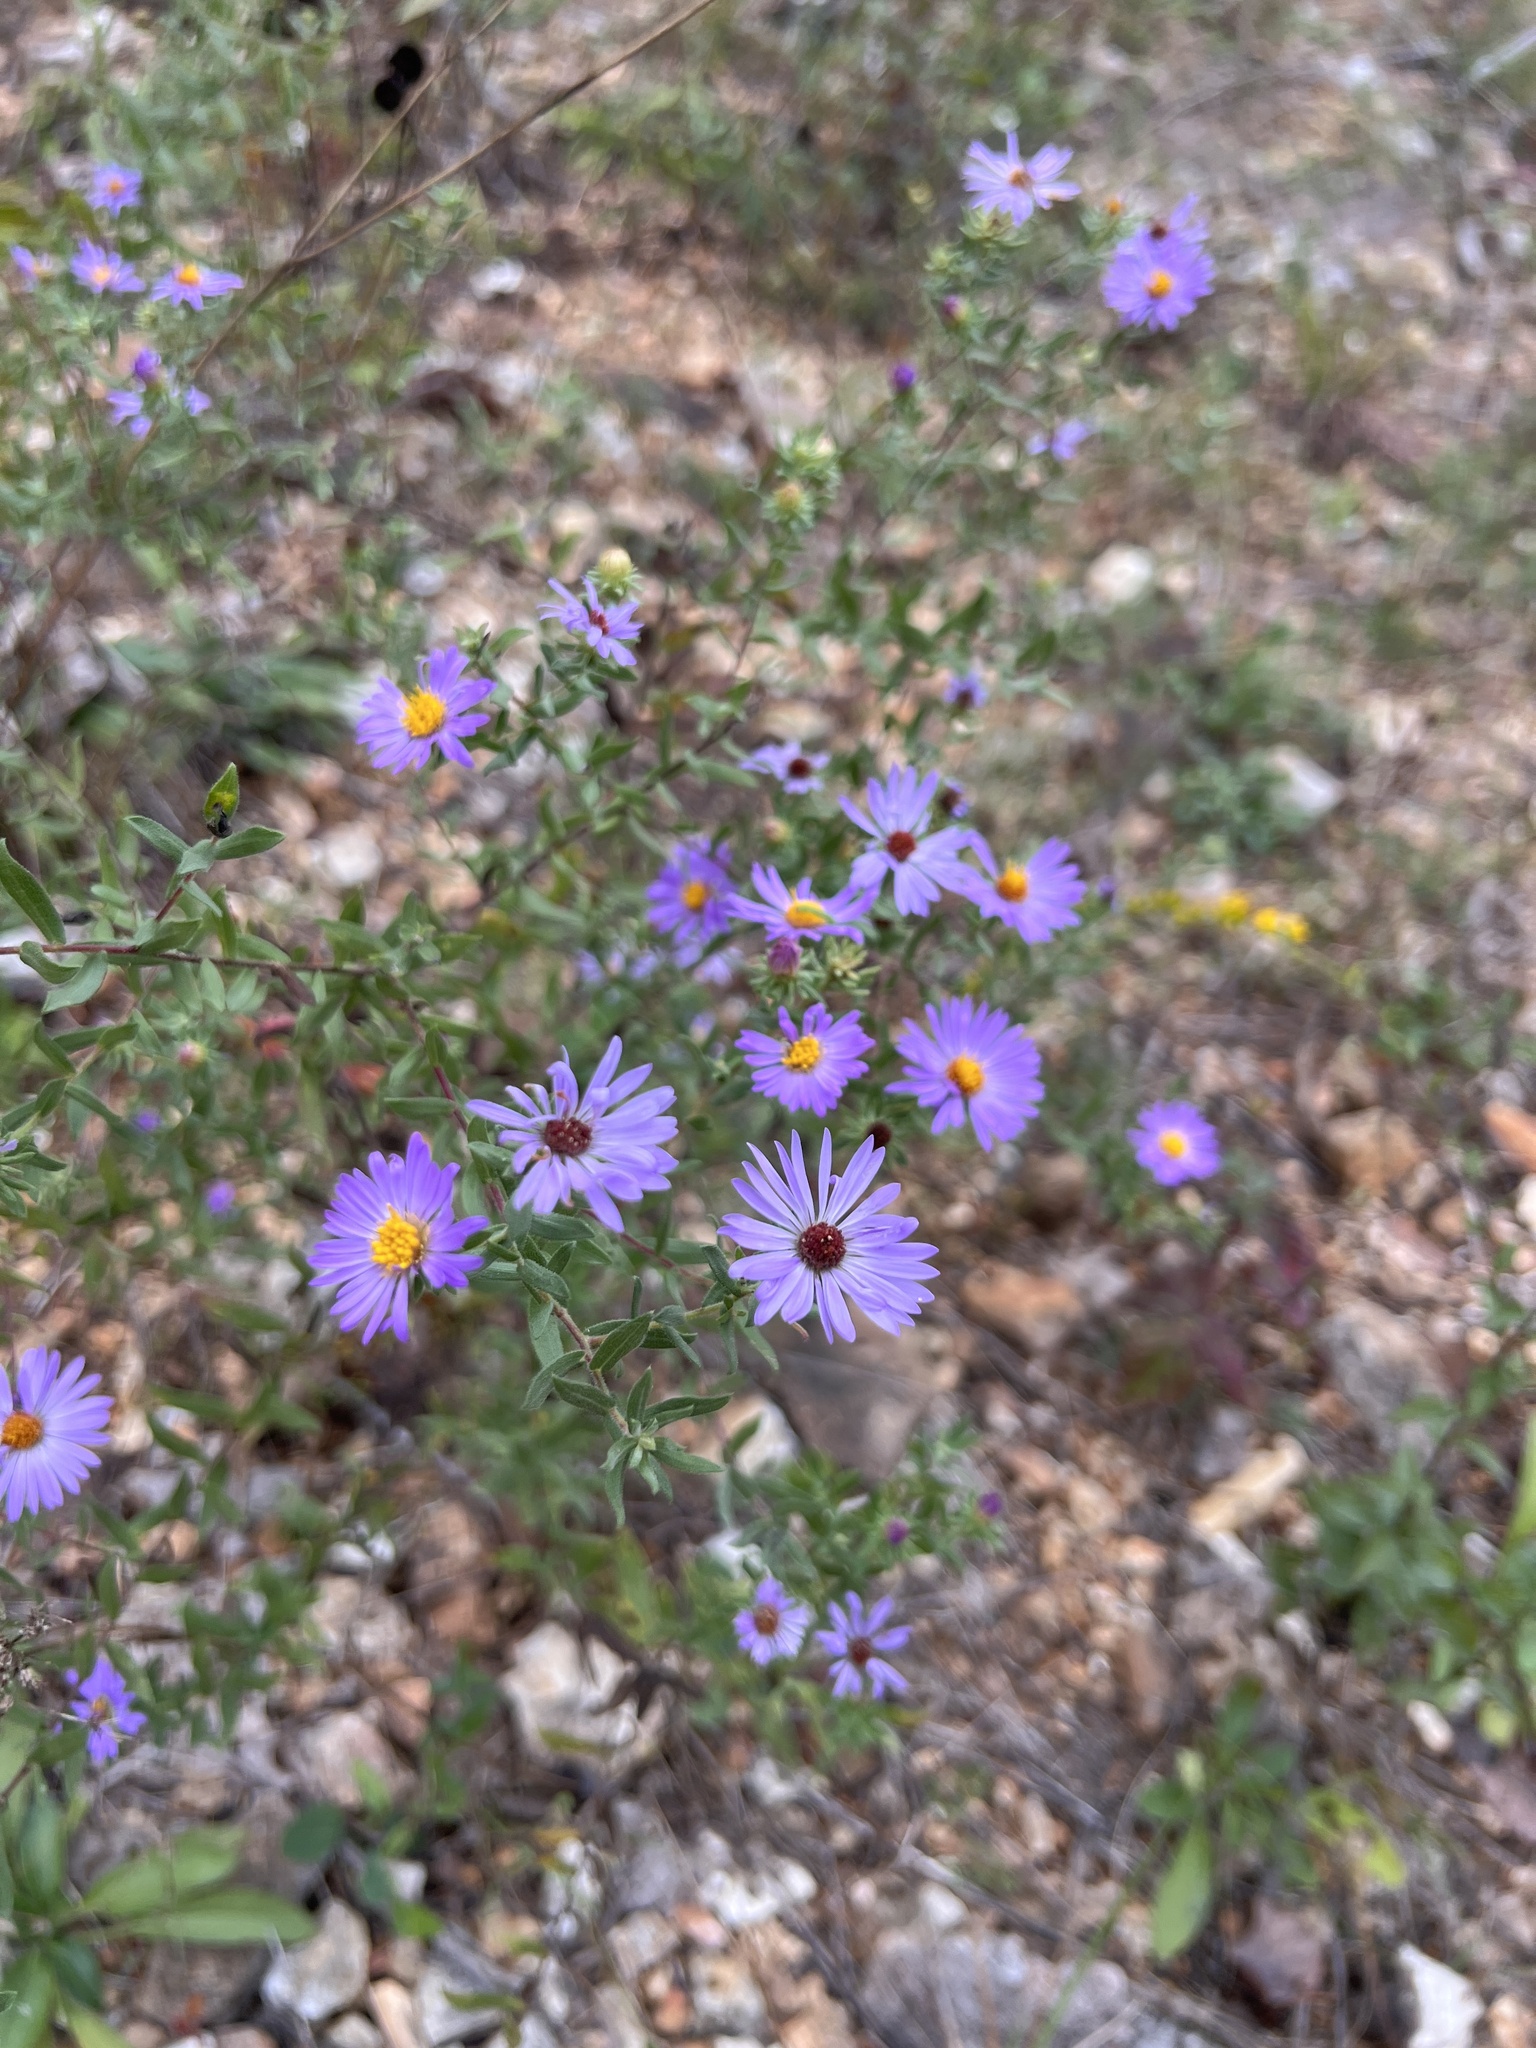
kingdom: Plantae
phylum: Tracheophyta
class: Magnoliopsida
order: Asterales
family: Asteraceae
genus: Symphyotrichum
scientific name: Symphyotrichum oblongifolium
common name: Aromatic aster
